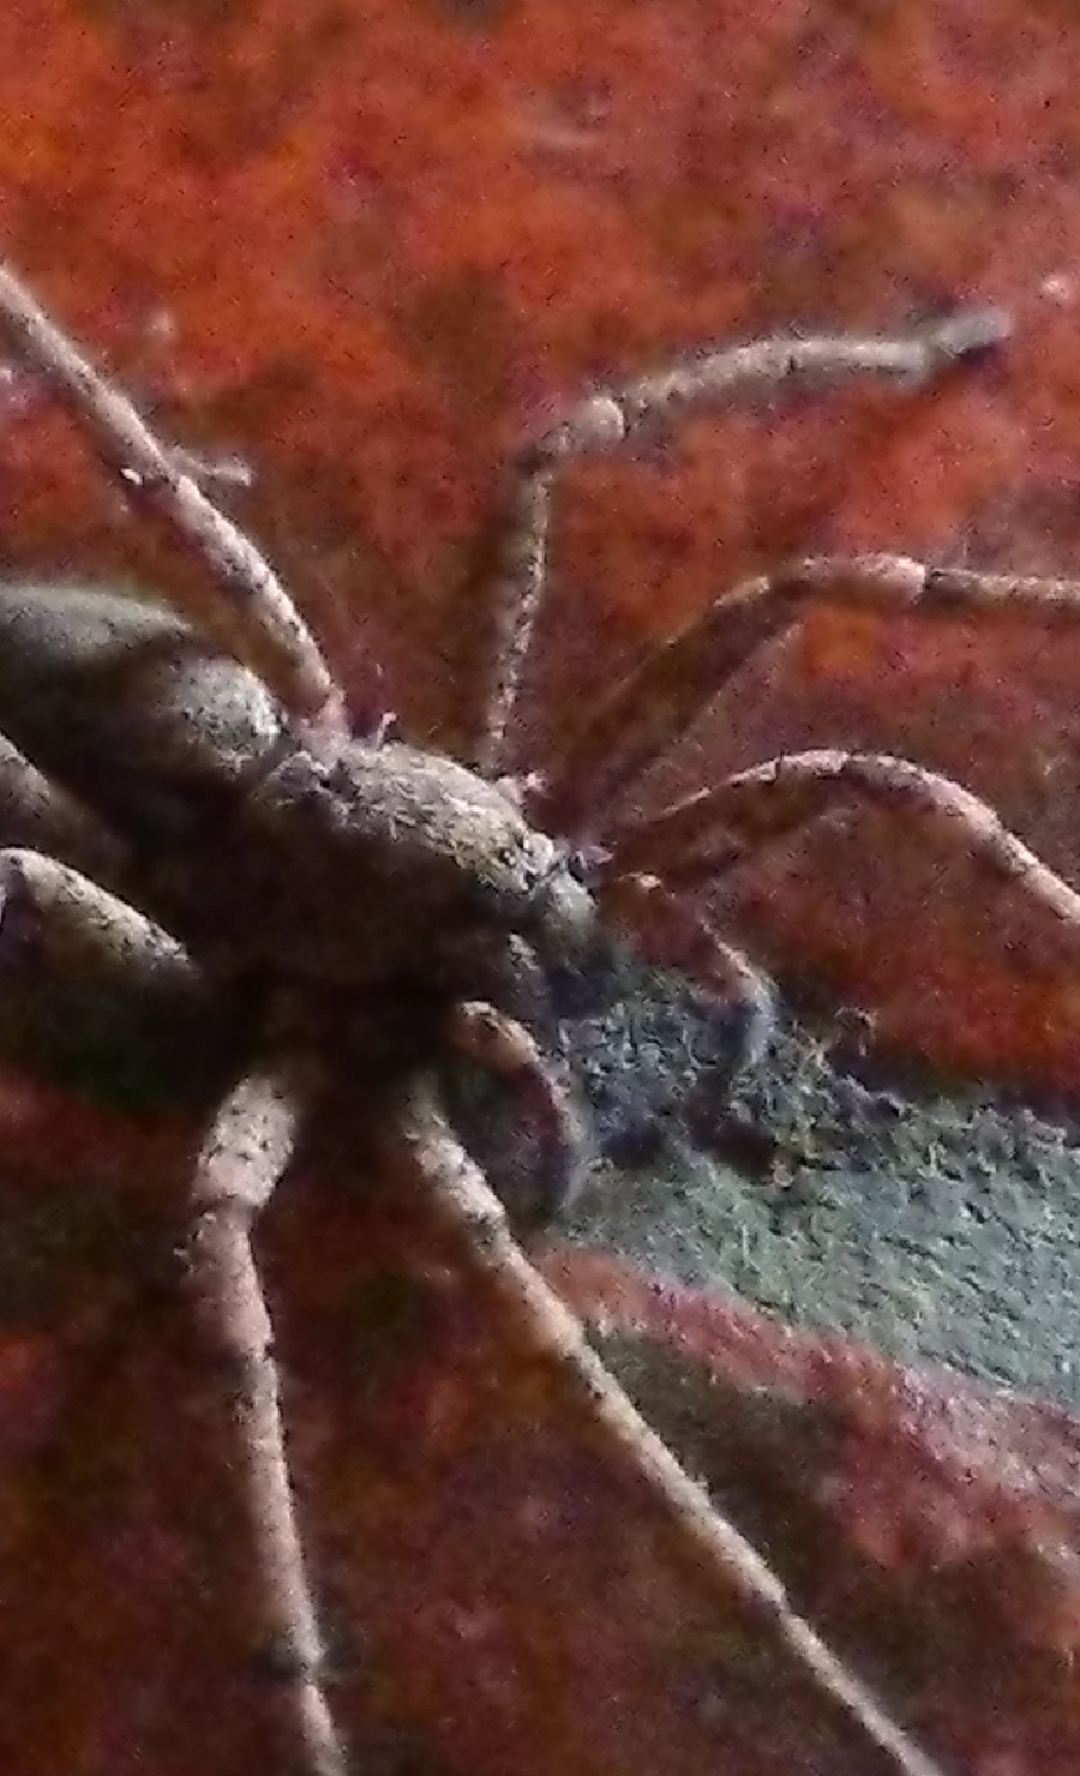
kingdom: Animalia
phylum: Arthropoda
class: Arachnida
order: Araneae
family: Anyphaenidae
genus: Tomopisthes
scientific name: Tomopisthes horrendus
